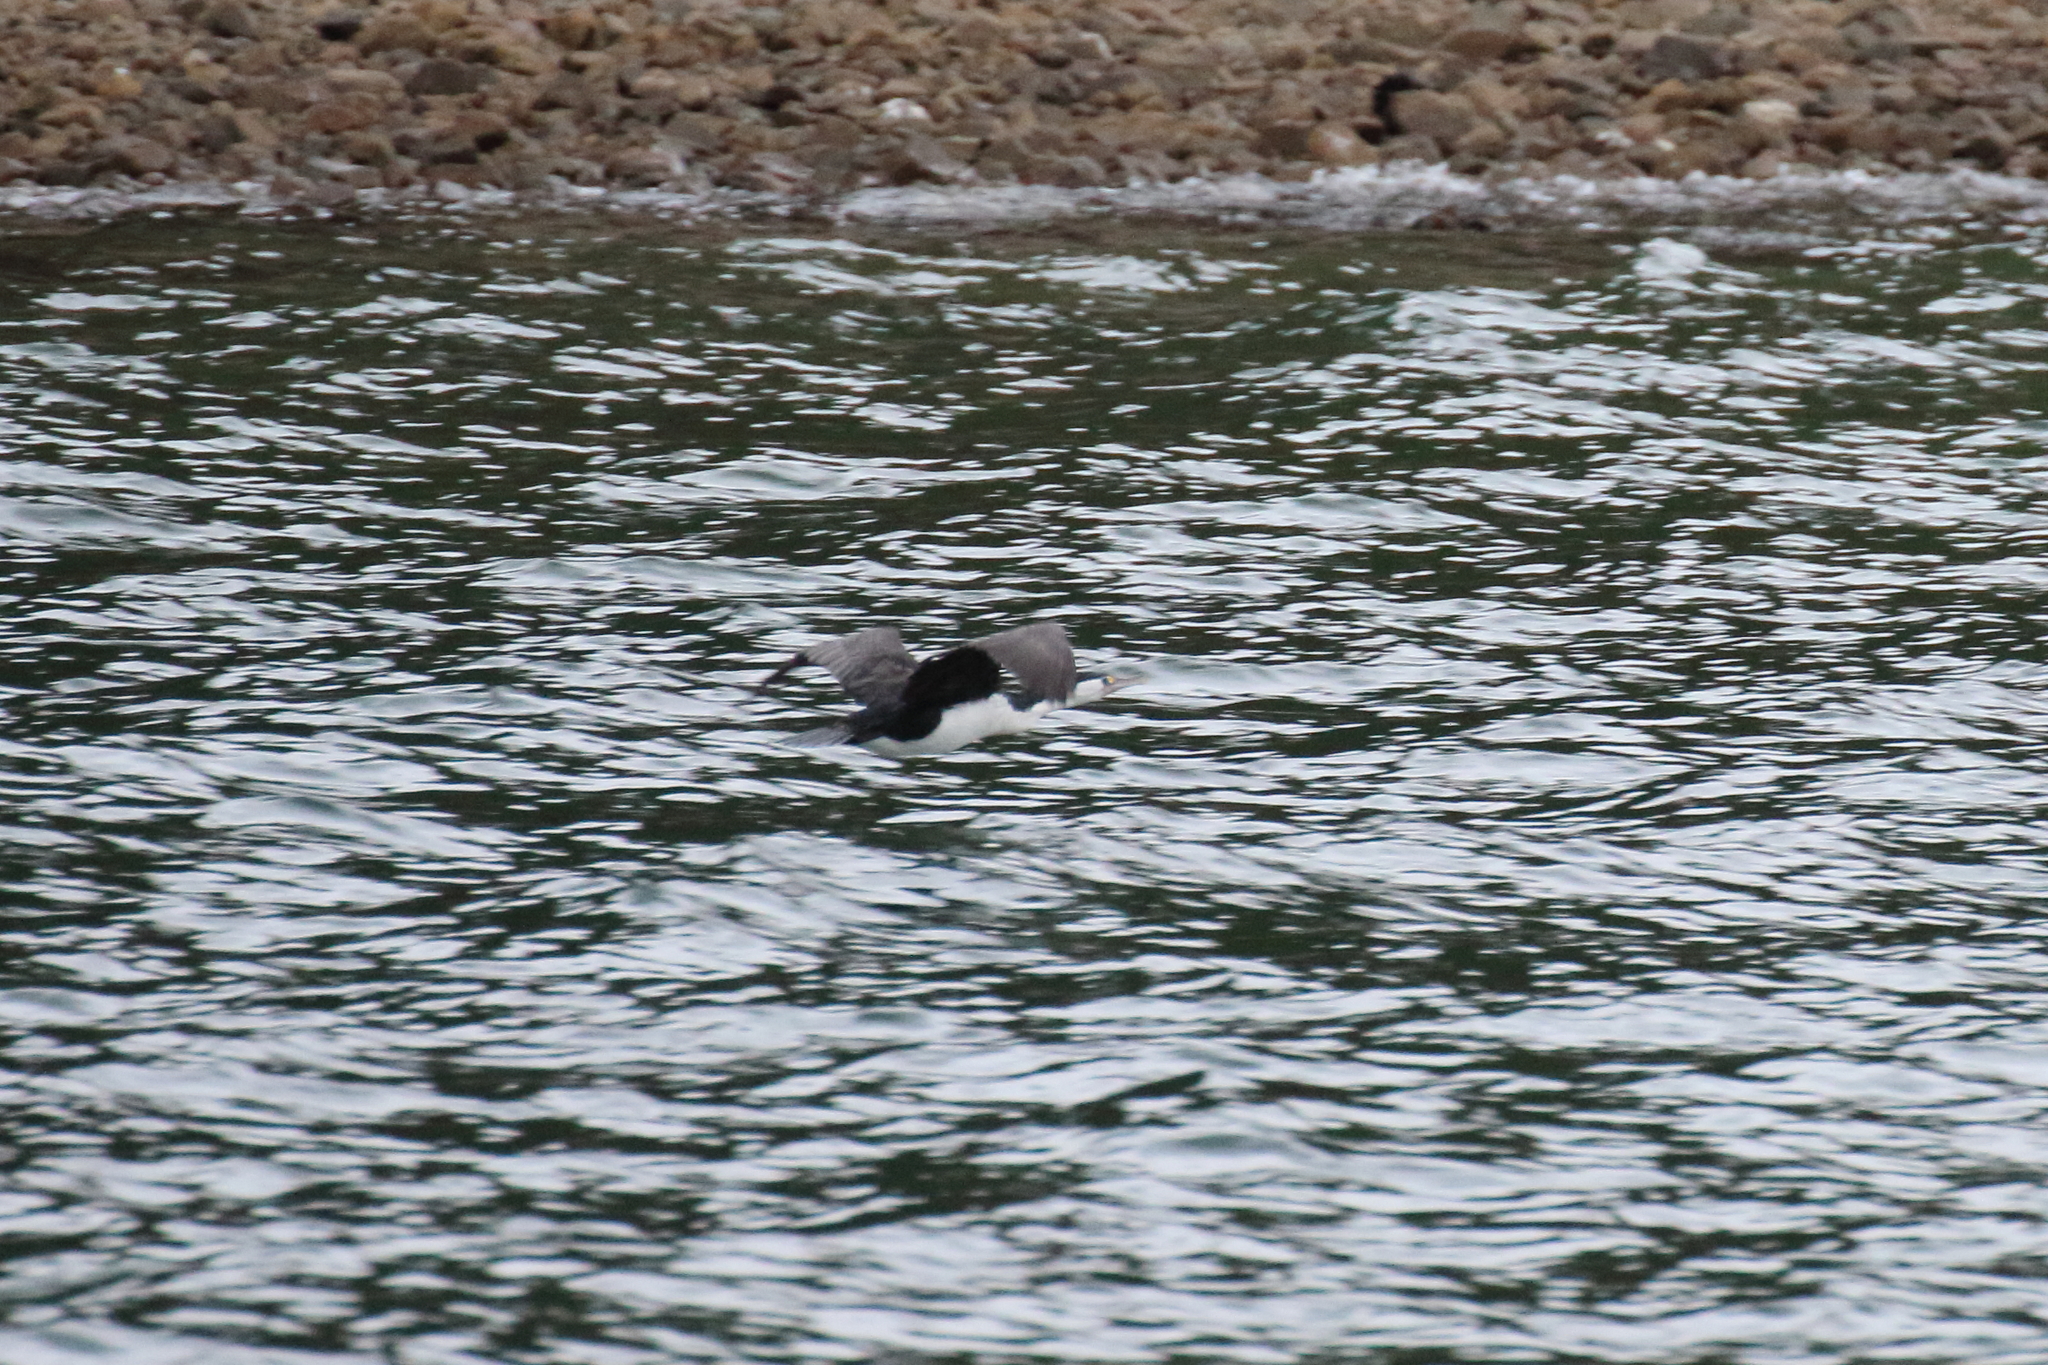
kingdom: Animalia
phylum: Chordata
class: Aves
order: Suliformes
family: Phalacrocoracidae
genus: Phalacrocorax
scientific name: Phalacrocorax varius
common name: Pied cormorant
